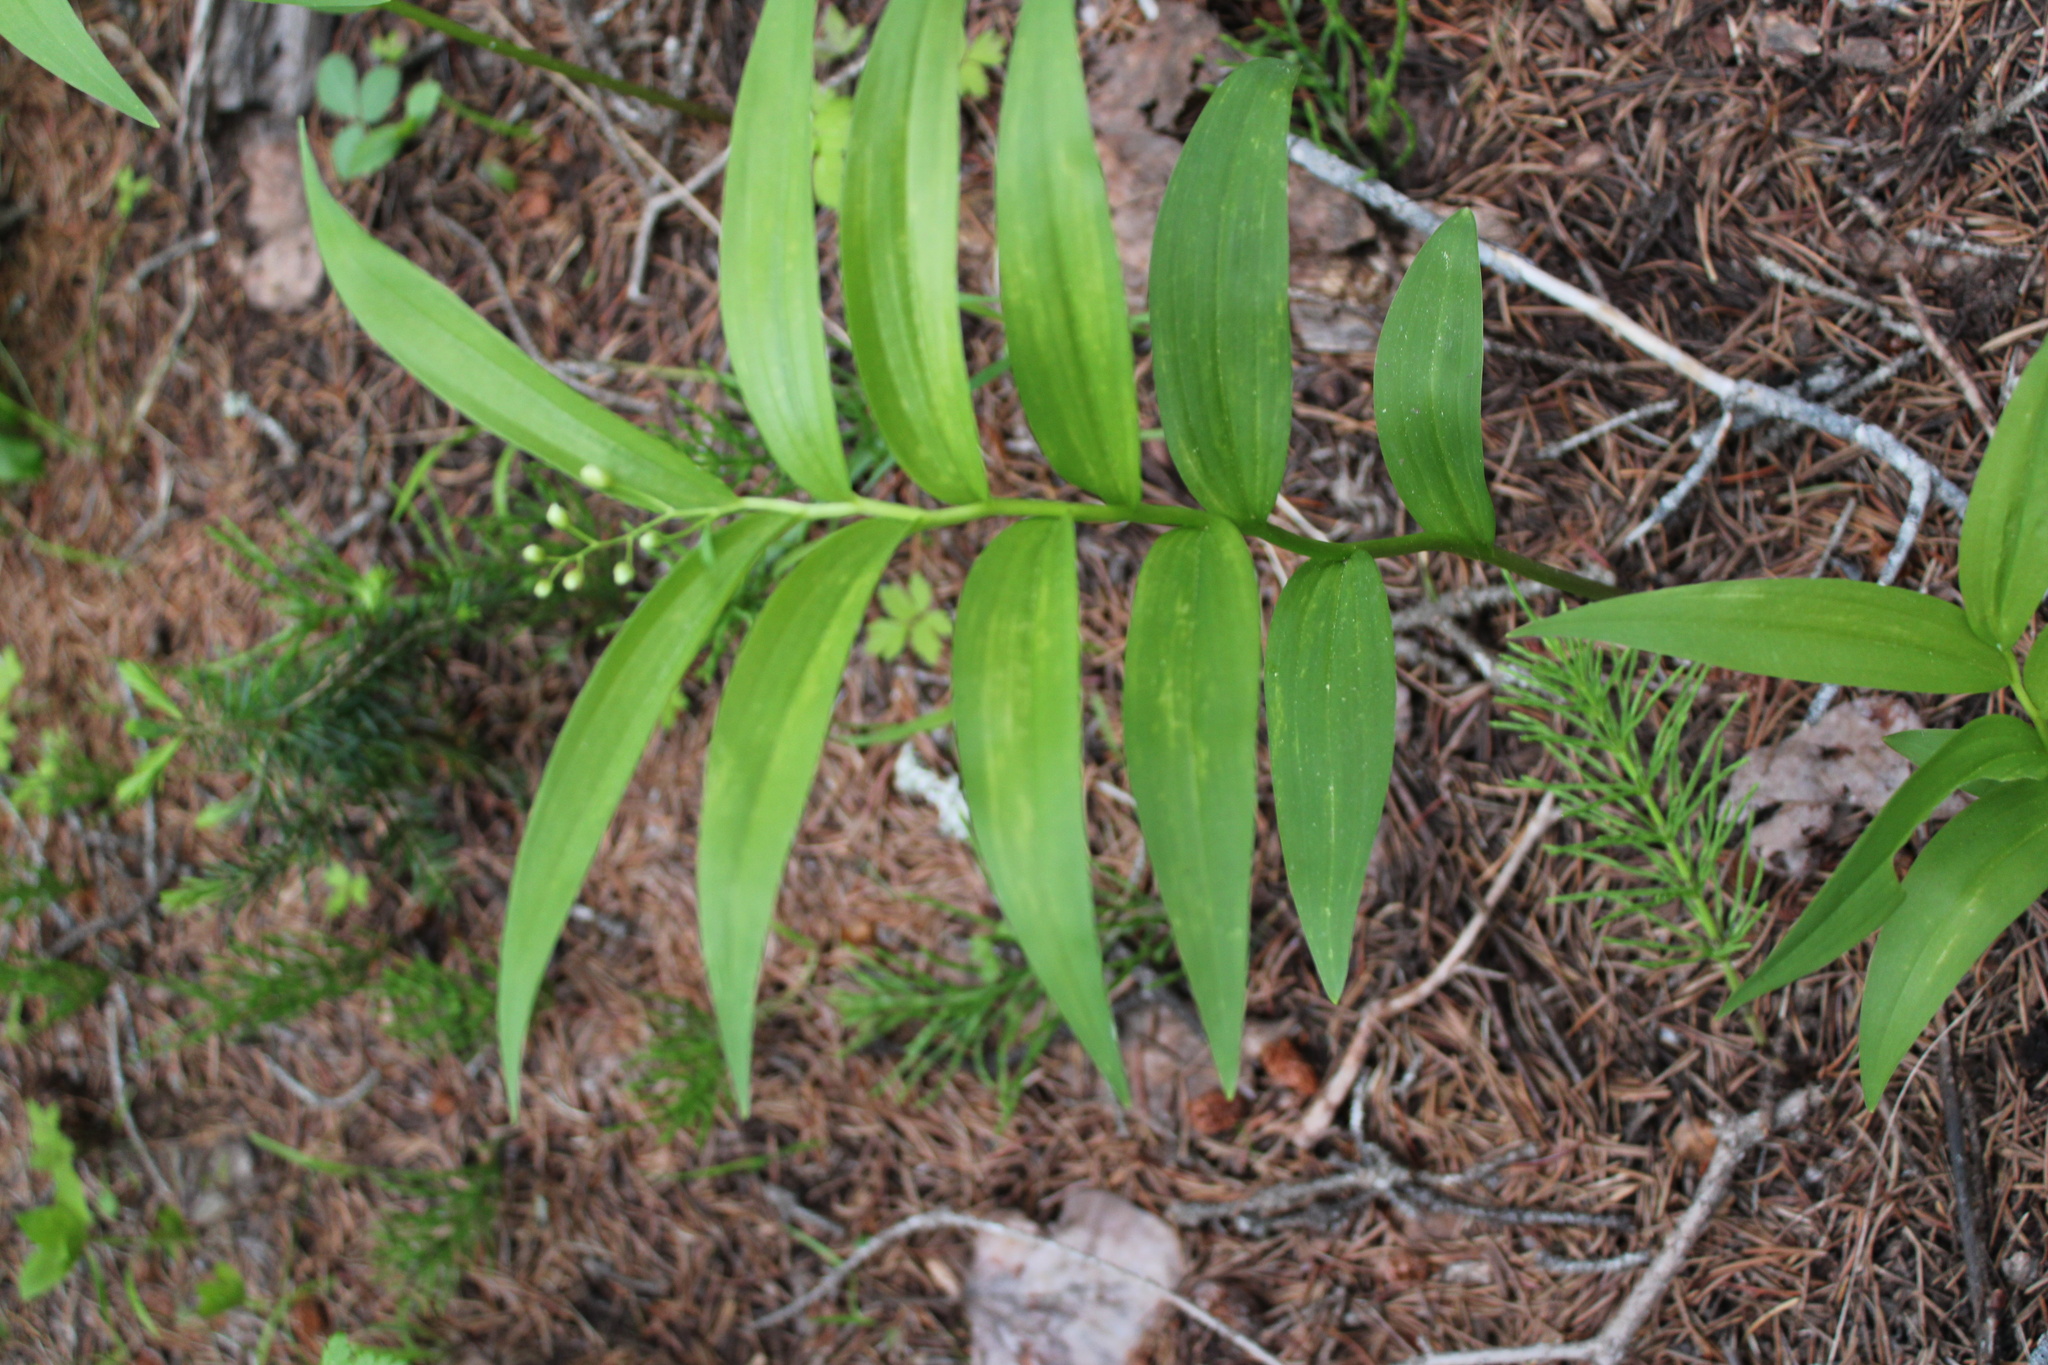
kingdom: Plantae
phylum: Tracheophyta
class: Liliopsida
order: Asparagales
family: Asparagaceae
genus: Maianthemum
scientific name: Maianthemum stellatum
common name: Little false solomon's seal
